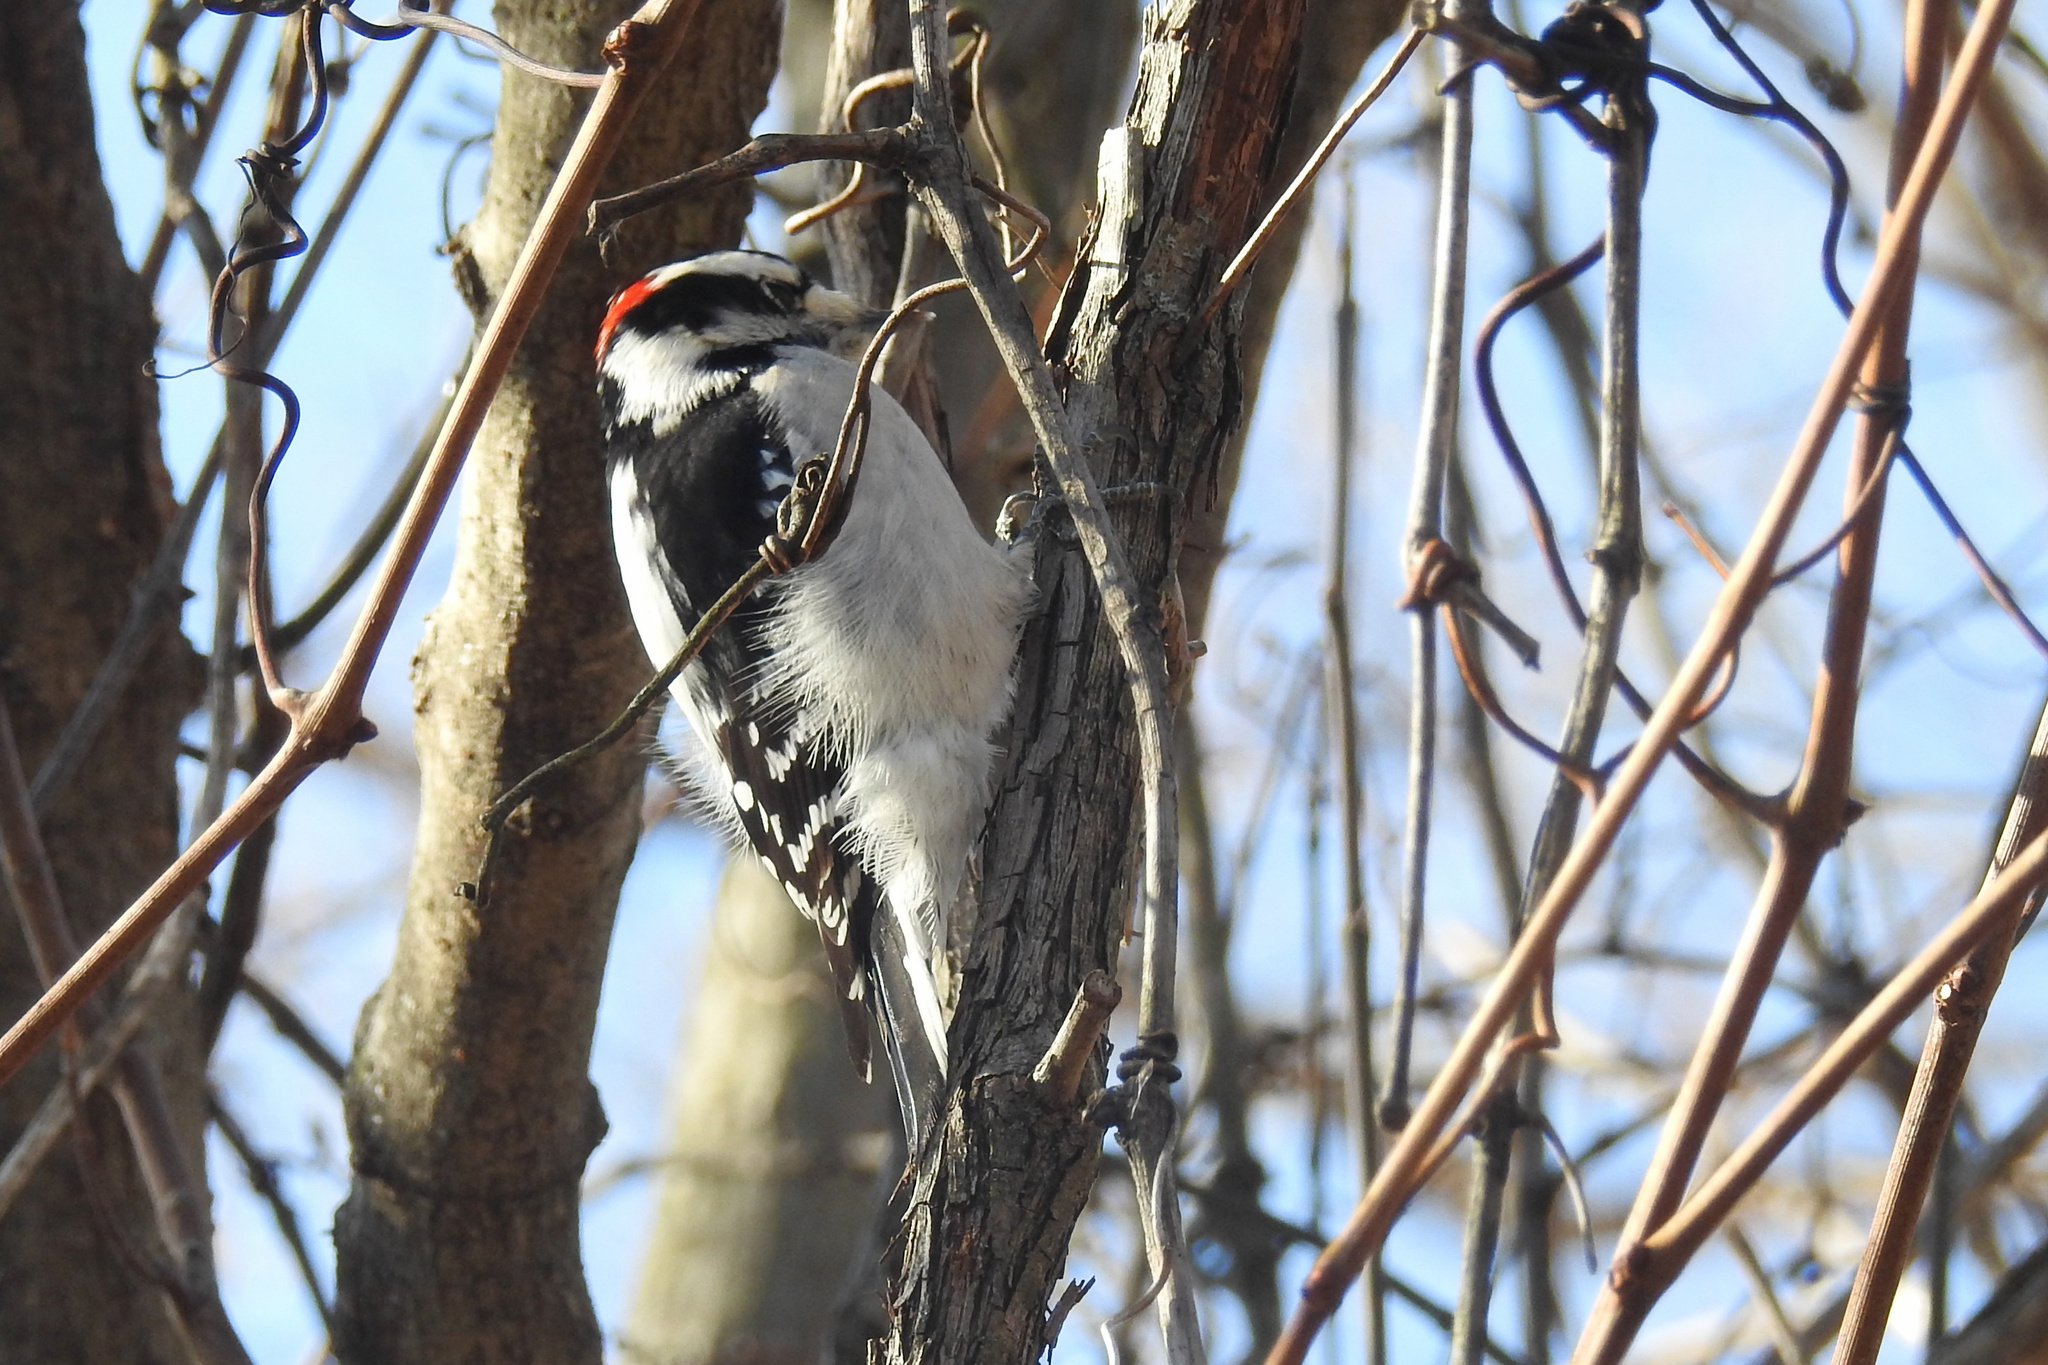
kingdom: Animalia
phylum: Chordata
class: Aves
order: Piciformes
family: Picidae
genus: Dryobates
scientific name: Dryobates pubescens
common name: Downy woodpecker
